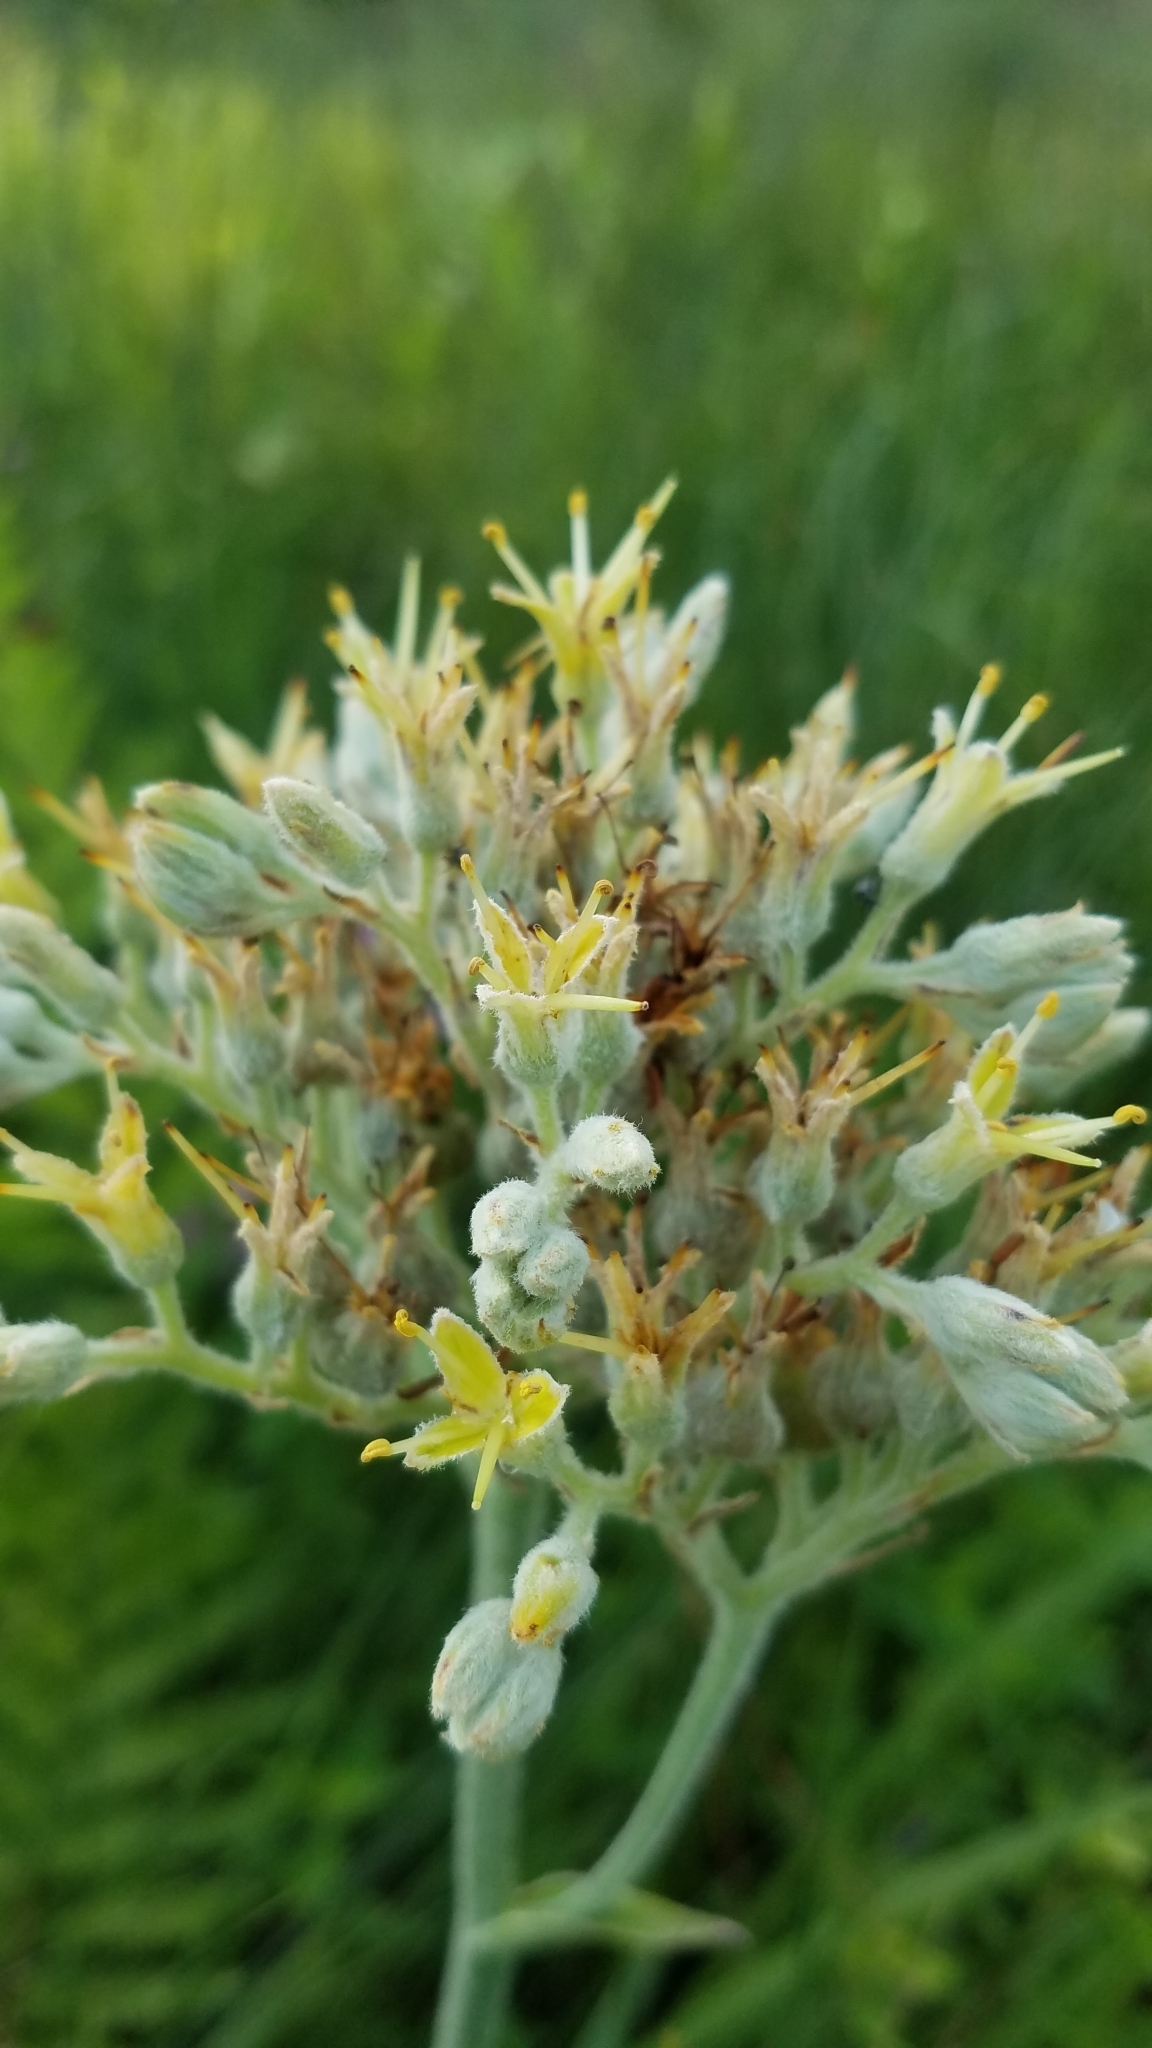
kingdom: Plantae
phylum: Tracheophyta
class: Liliopsida
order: Commelinales
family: Haemodoraceae
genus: Lachnanthes
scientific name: Lachnanthes caroliana
